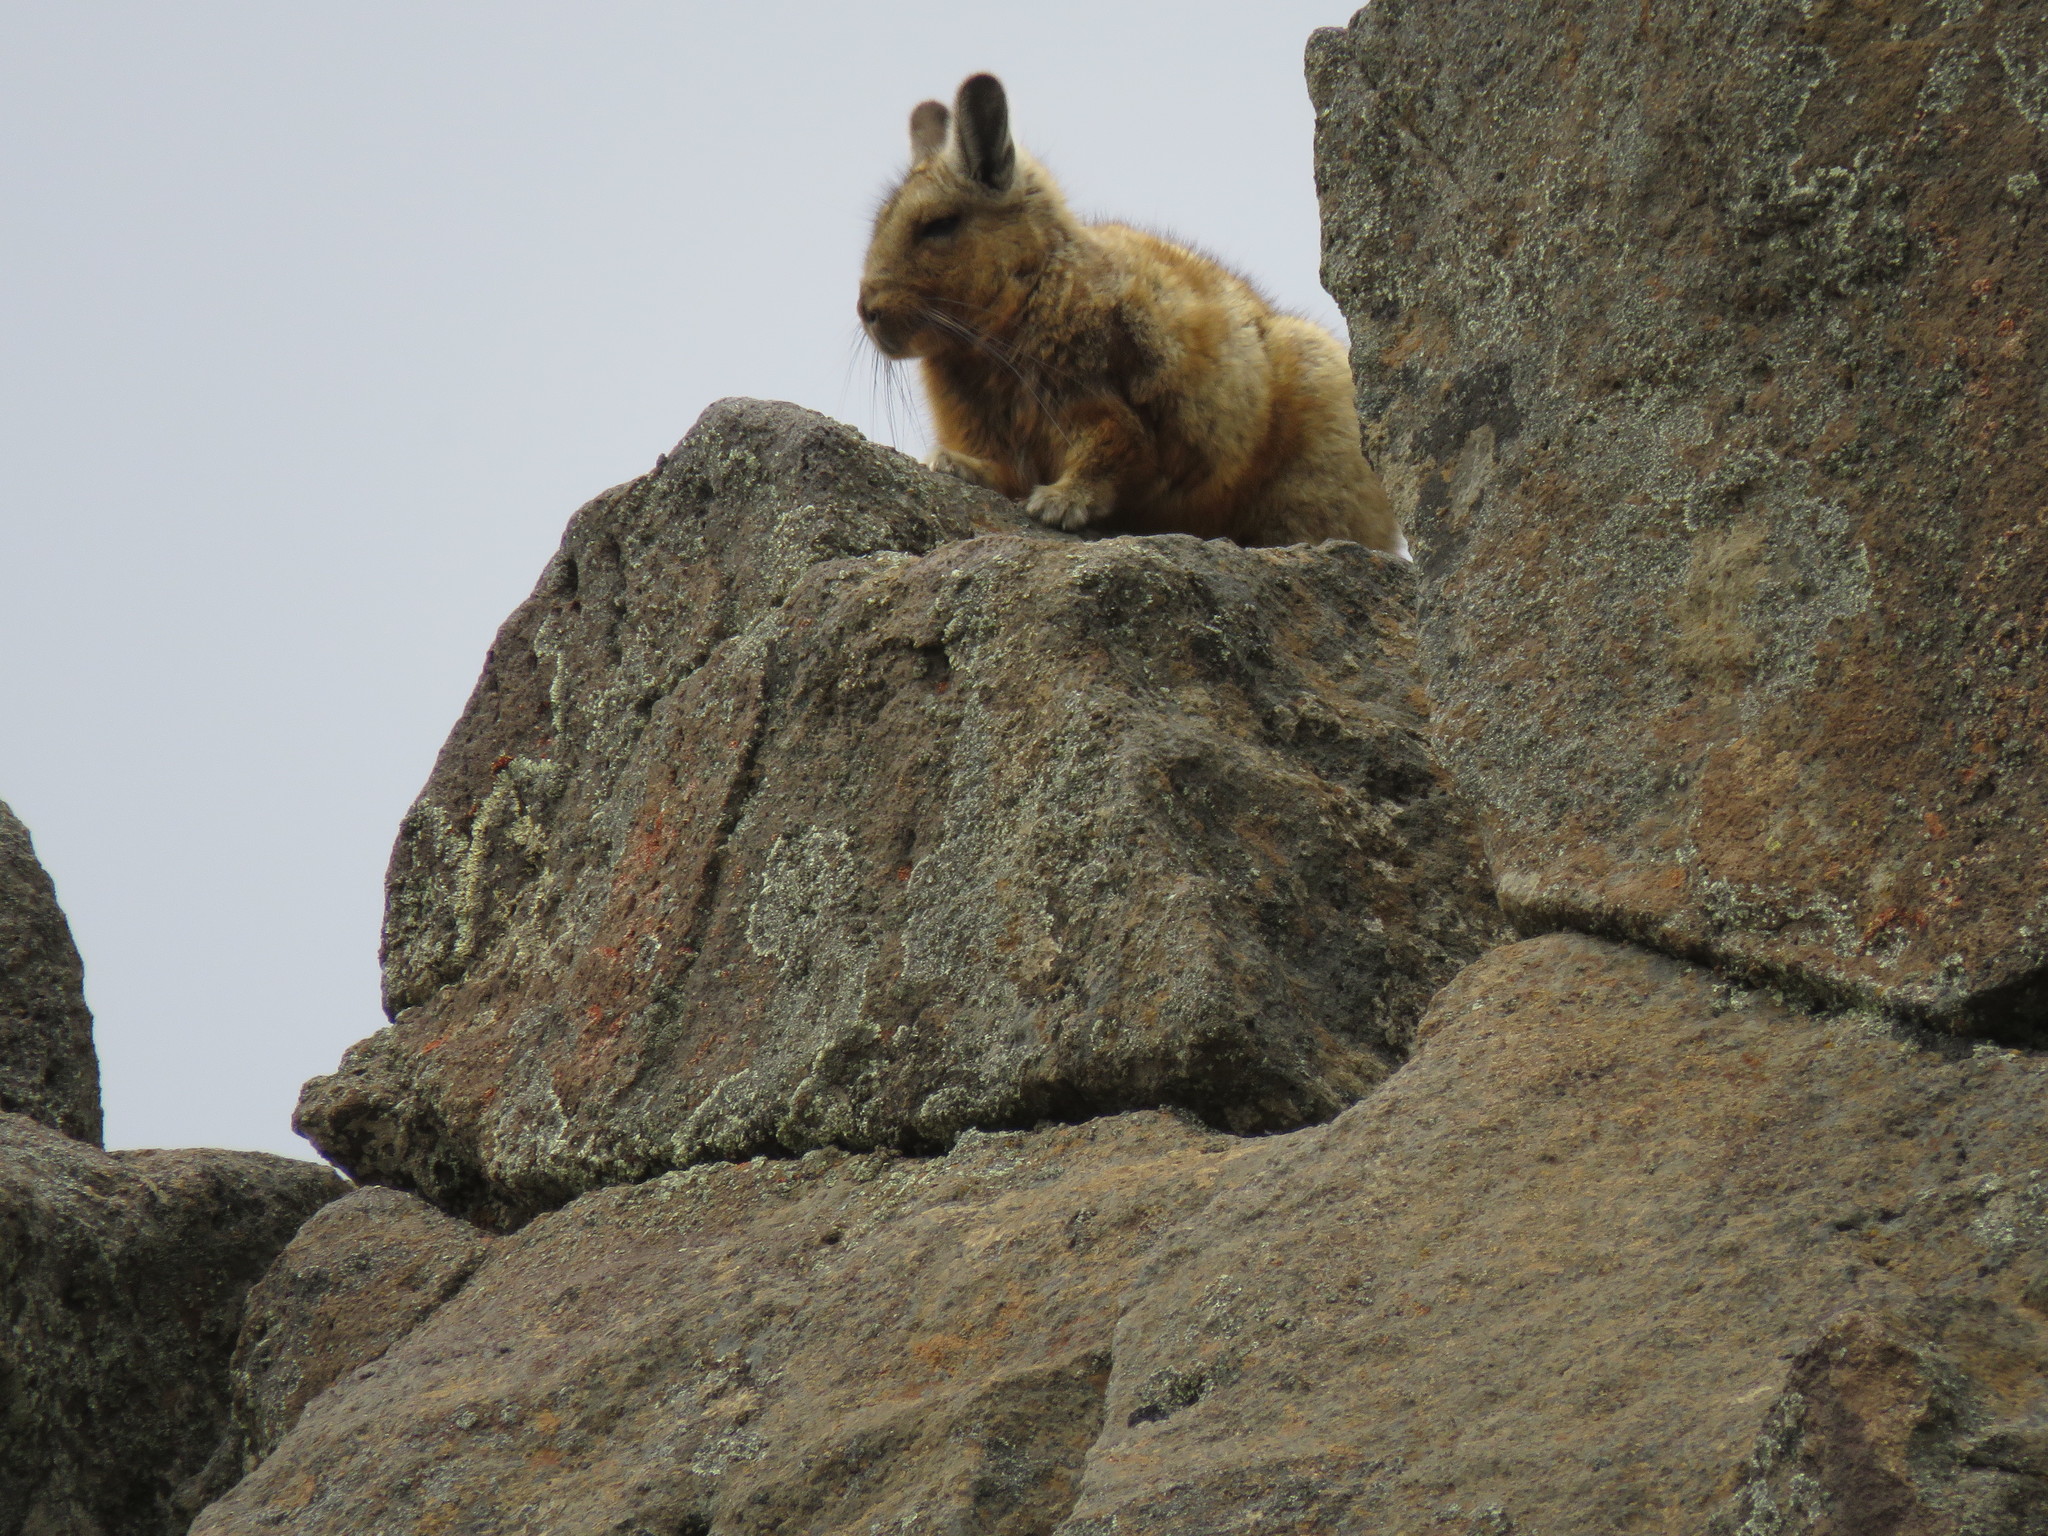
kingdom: Animalia
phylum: Chordata
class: Mammalia
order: Rodentia
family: Chinchillidae
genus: Lagidium
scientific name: Lagidium wolffsohni
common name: Wolffsohn's viscacha
